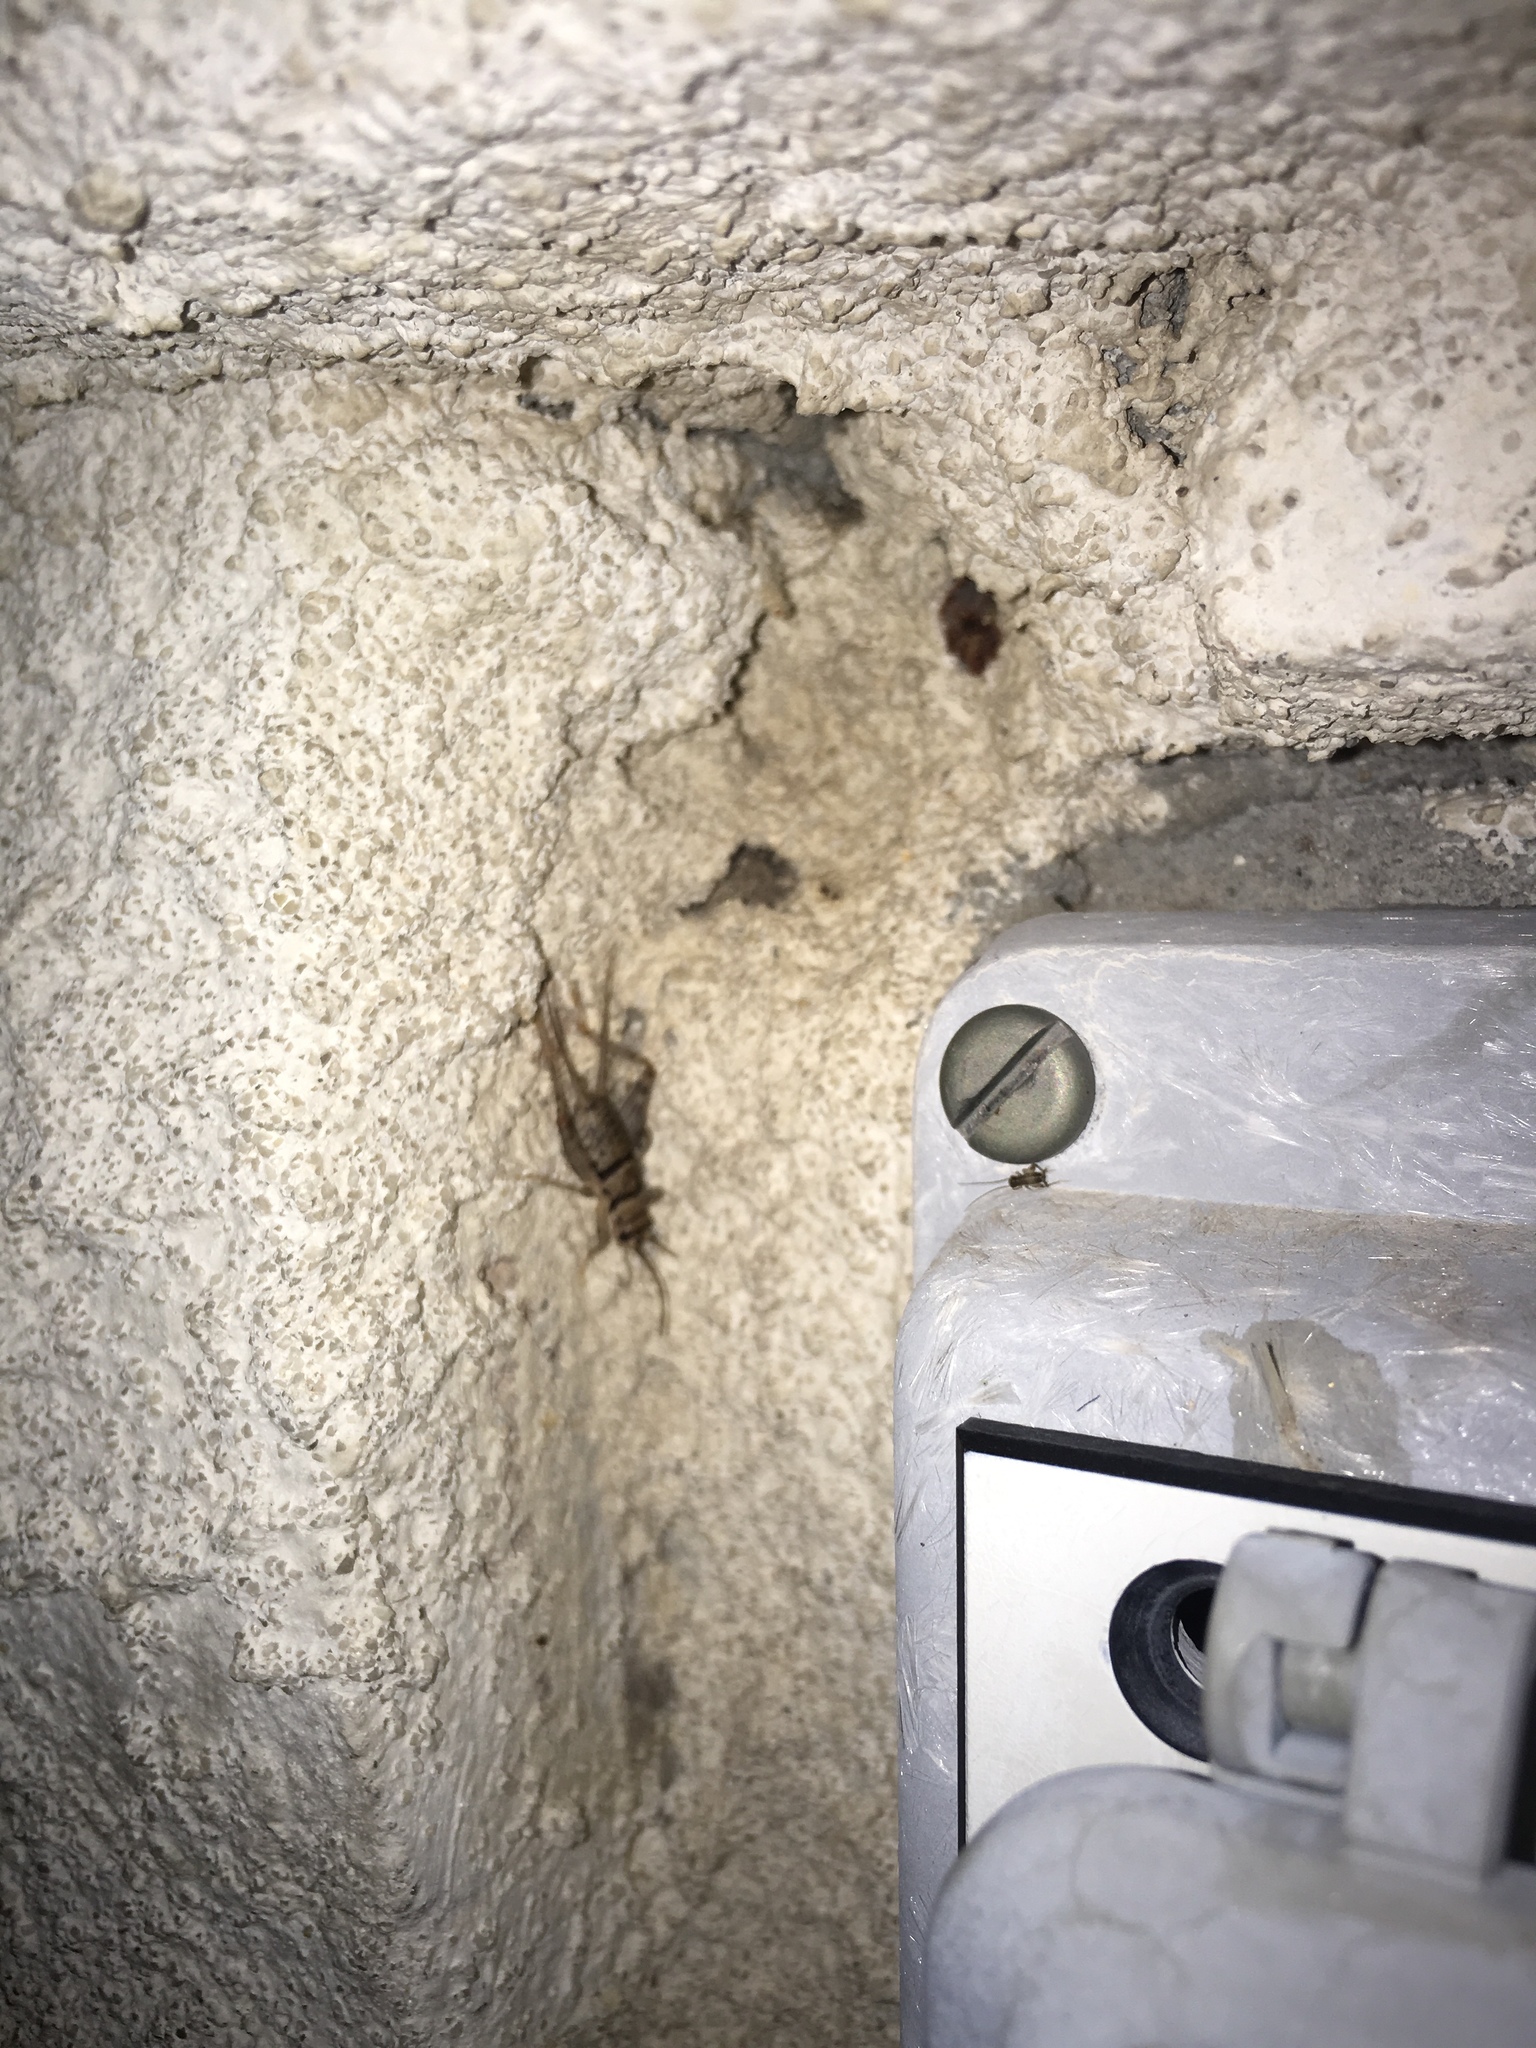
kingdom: Animalia
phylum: Arthropoda
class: Insecta
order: Orthoptera
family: Gryllidae
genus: Gryllodes
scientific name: Gryllodes sigillatus
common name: Tropical house cricket
